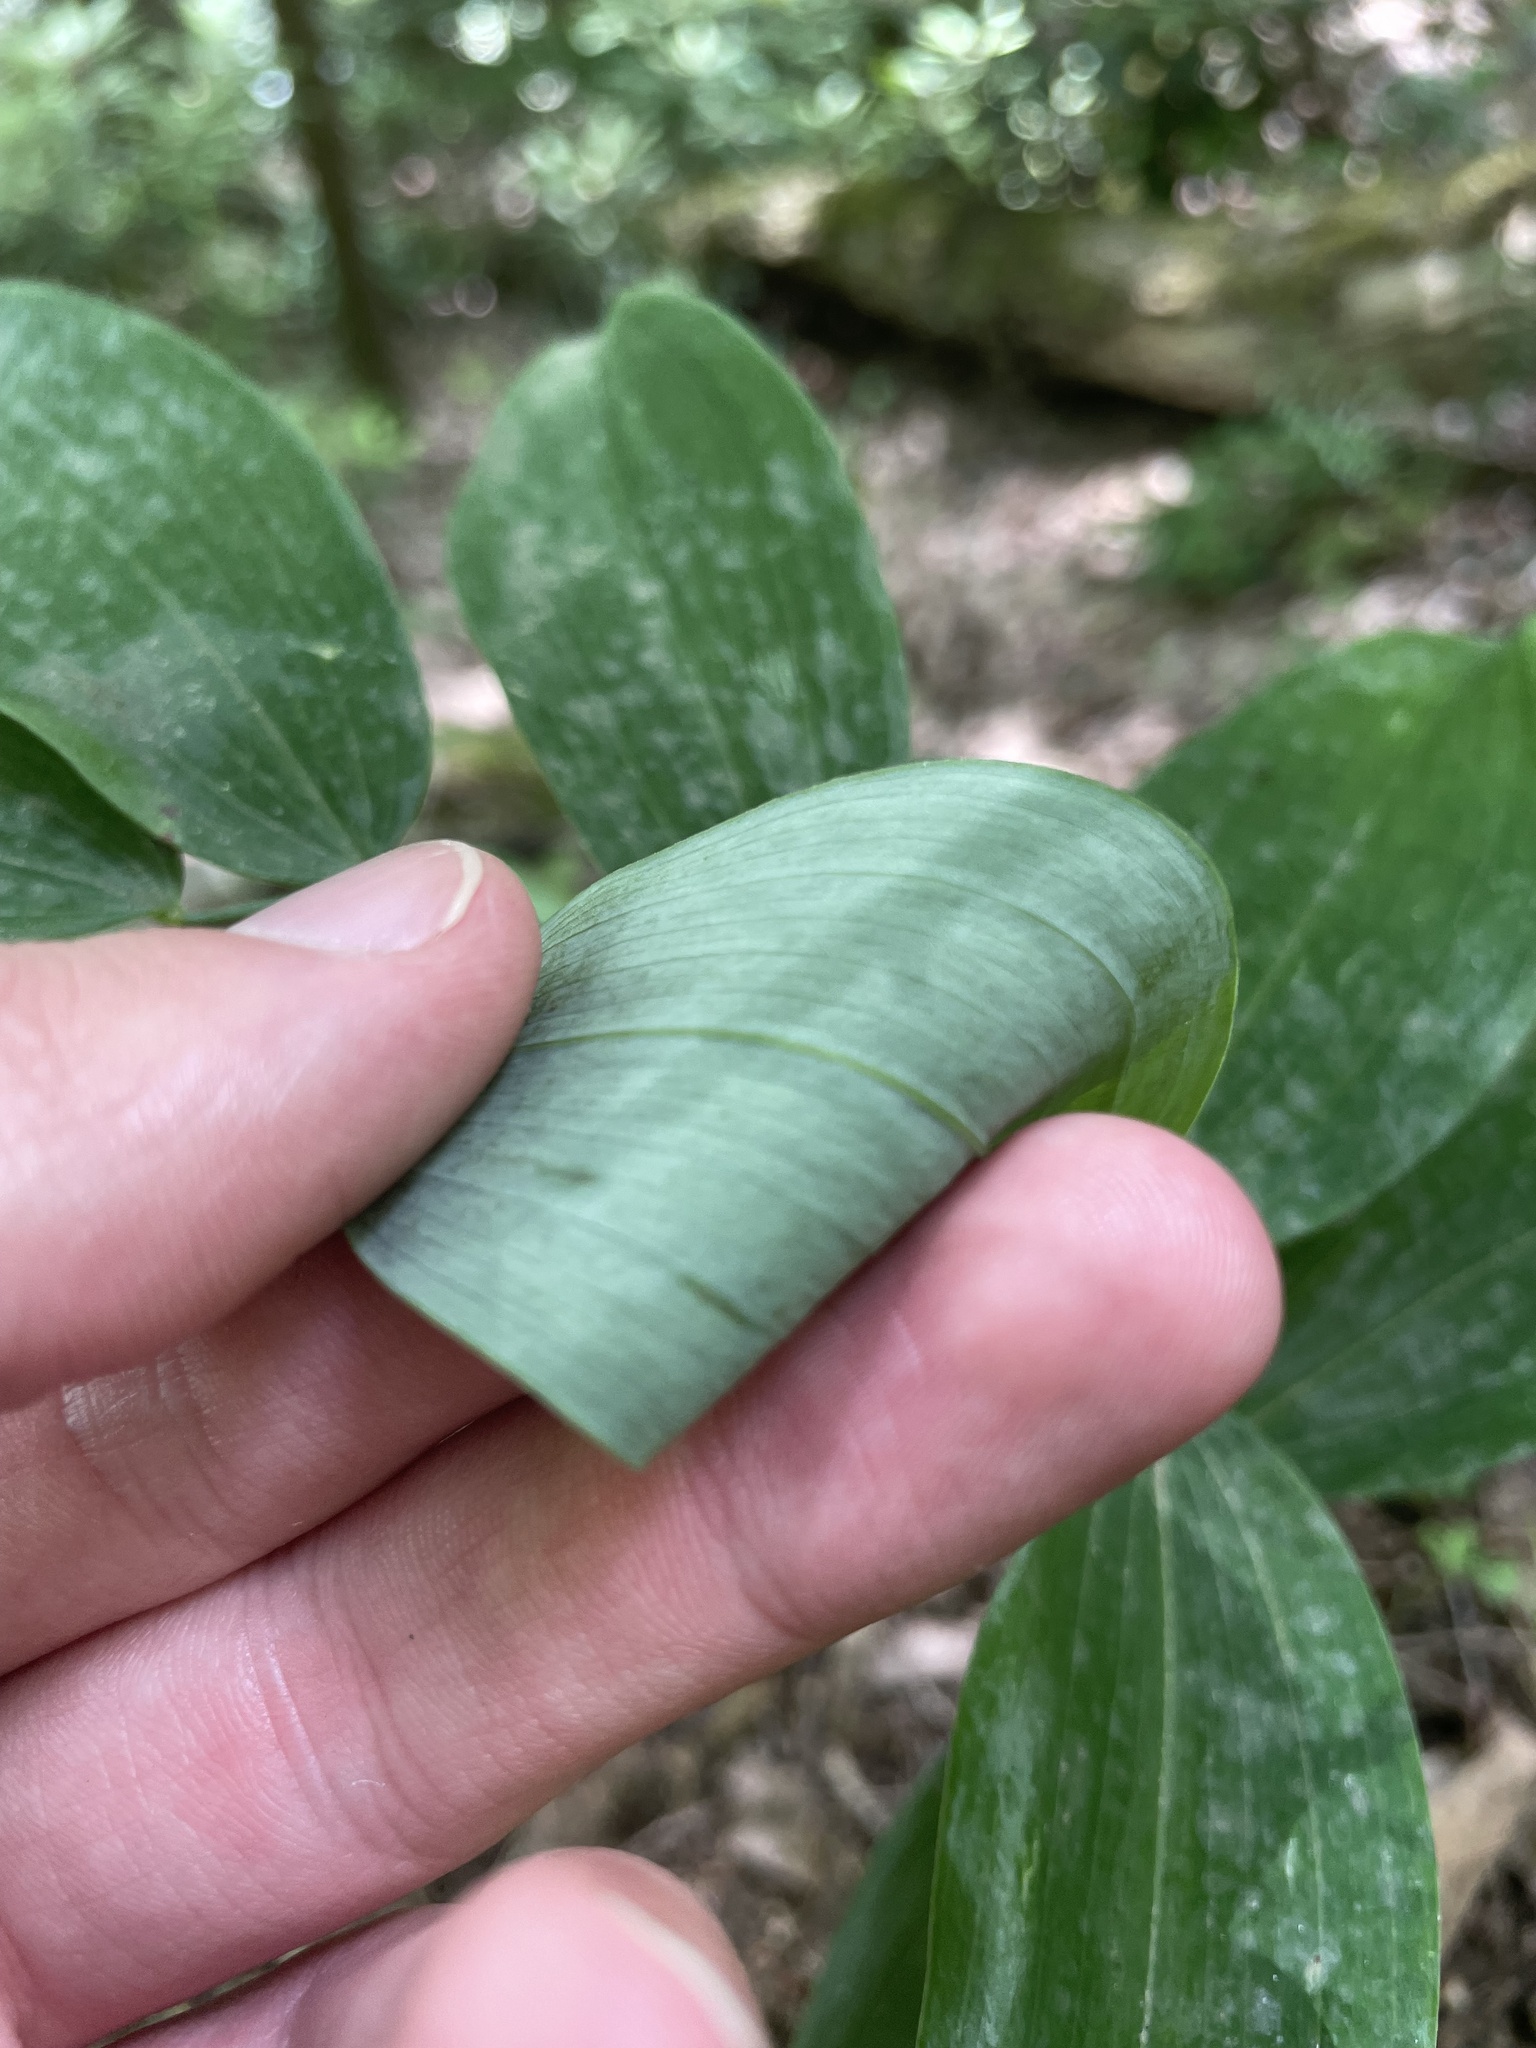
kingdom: Plantae
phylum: Tracheophyta
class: Liliopsida
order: Asparagales
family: Asparagaceae
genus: Polygonatum
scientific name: Polygonatum biflorum
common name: American solomon's-seal
